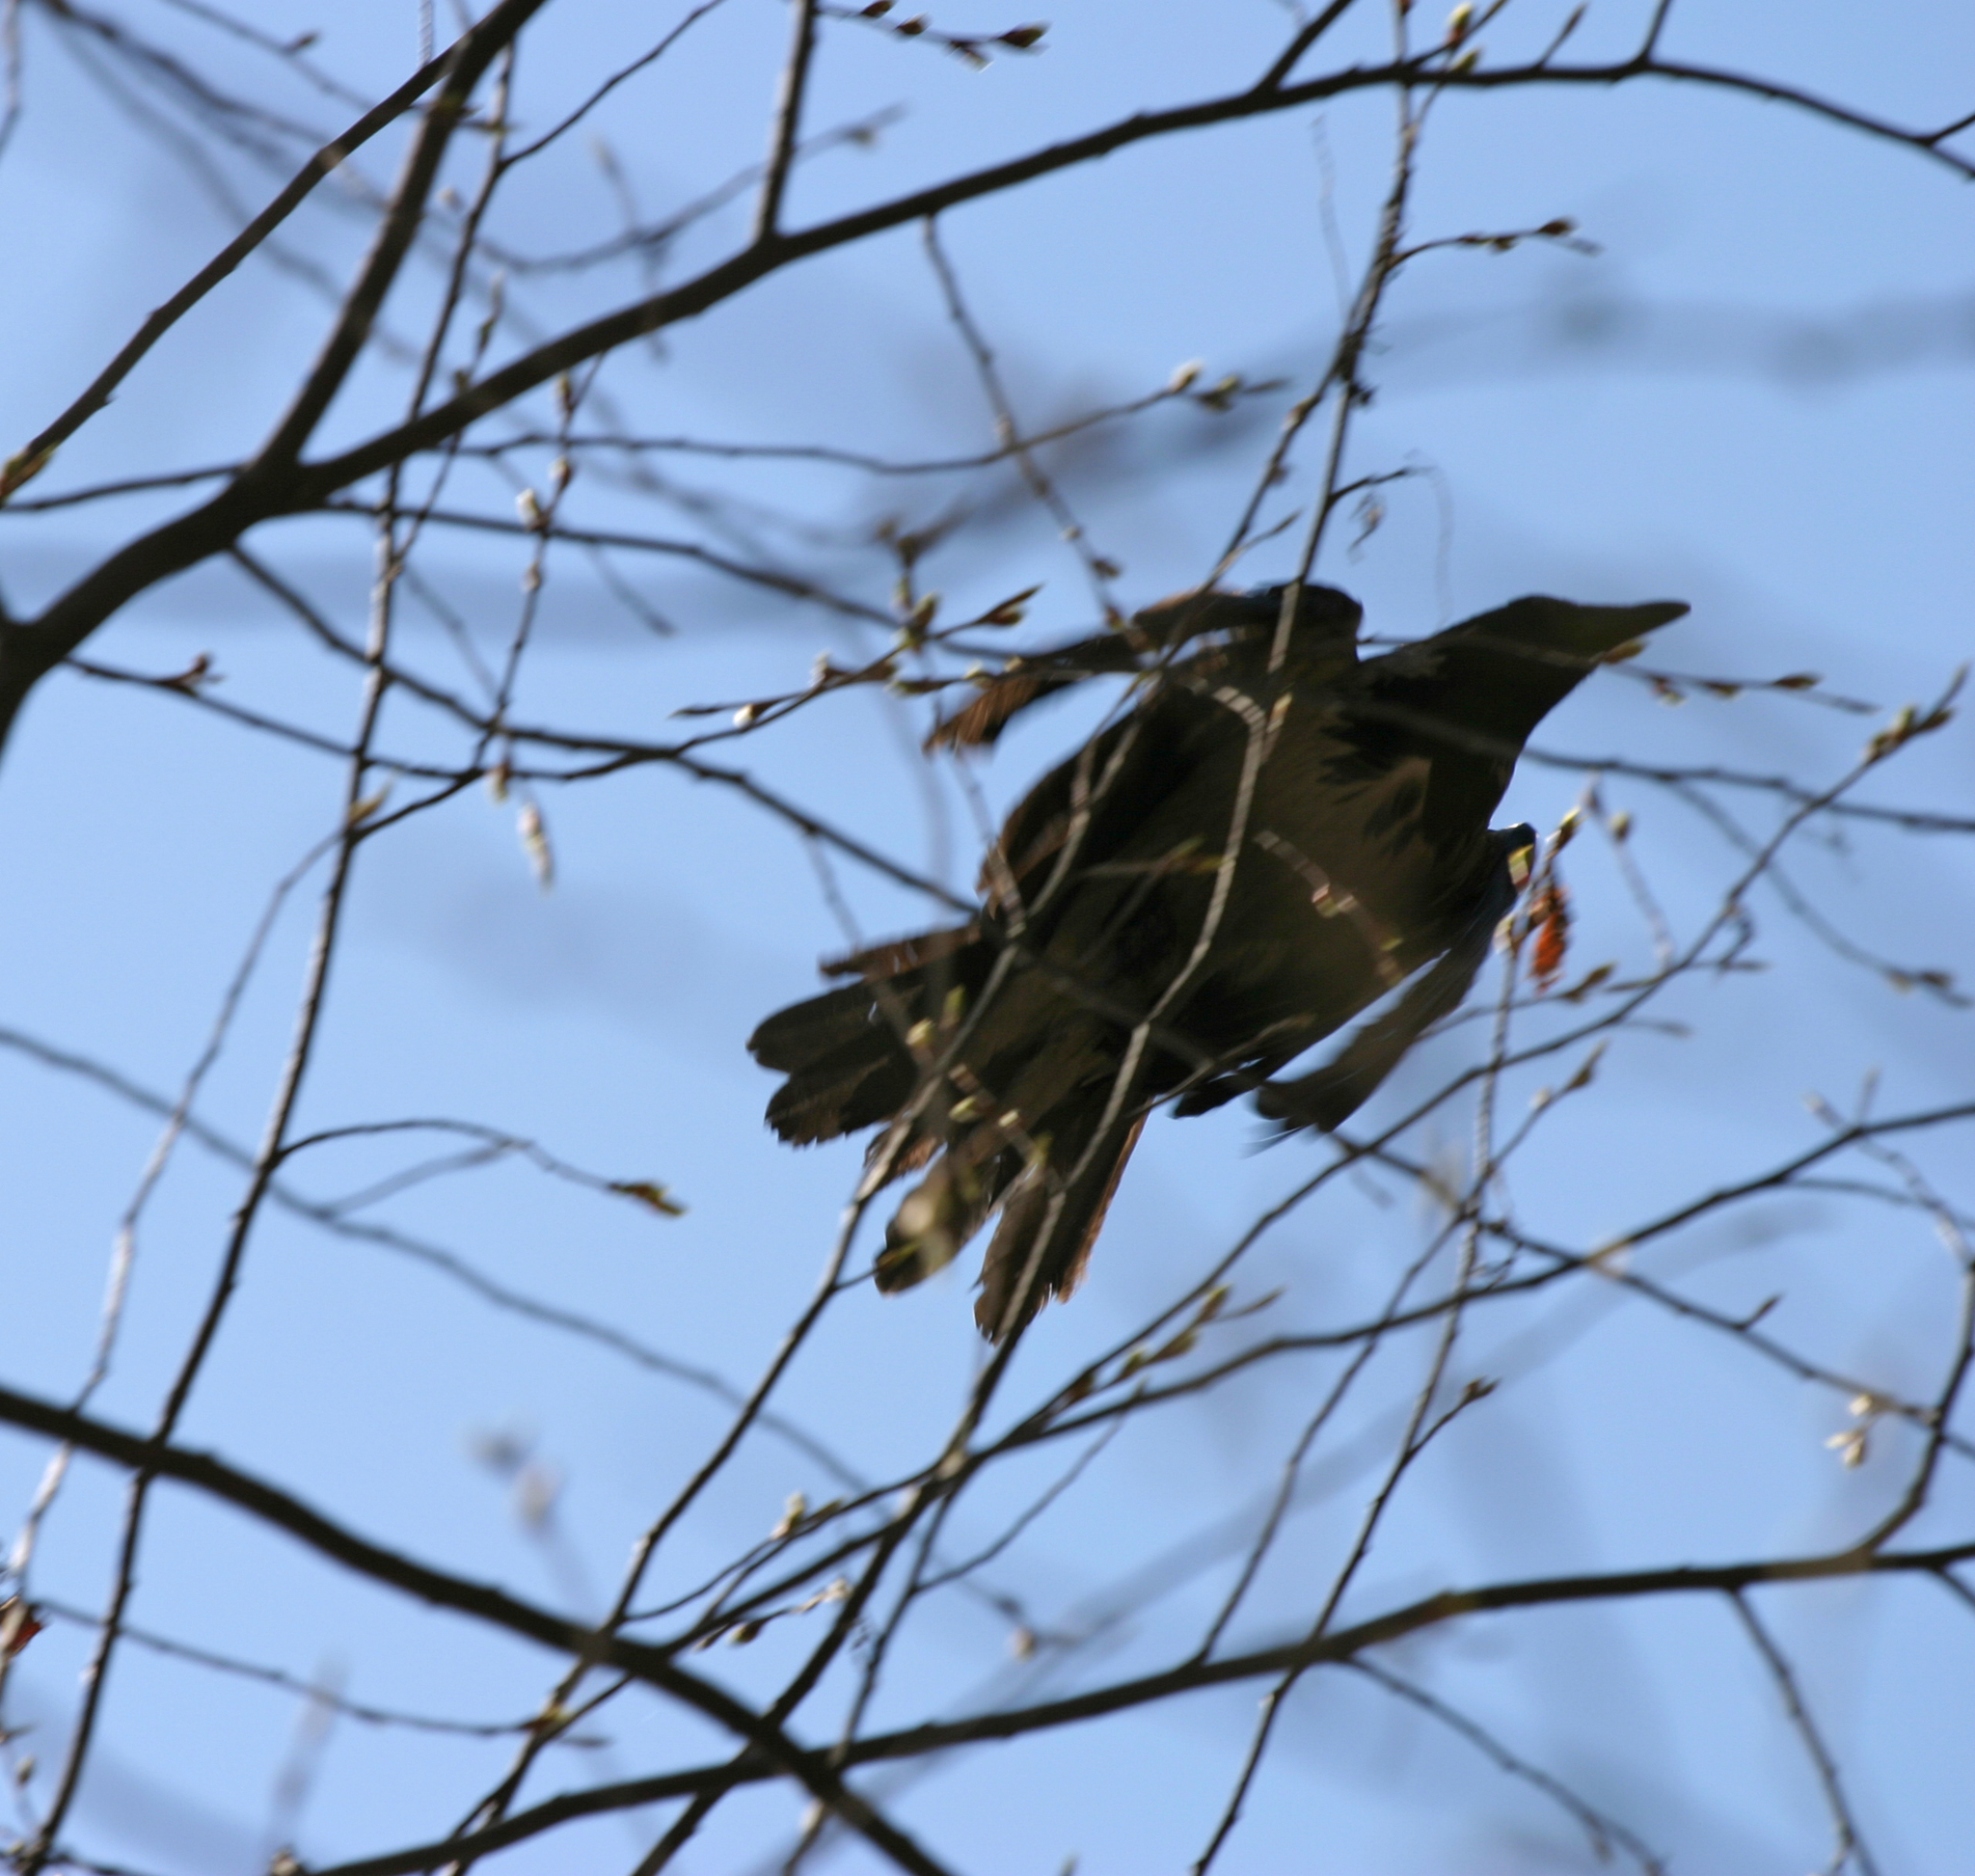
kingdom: Animalia
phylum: Chordata
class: Aves
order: Passeriformes
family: Corvidae
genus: Corvus
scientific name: Corvus cornix
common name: Hooded crow
